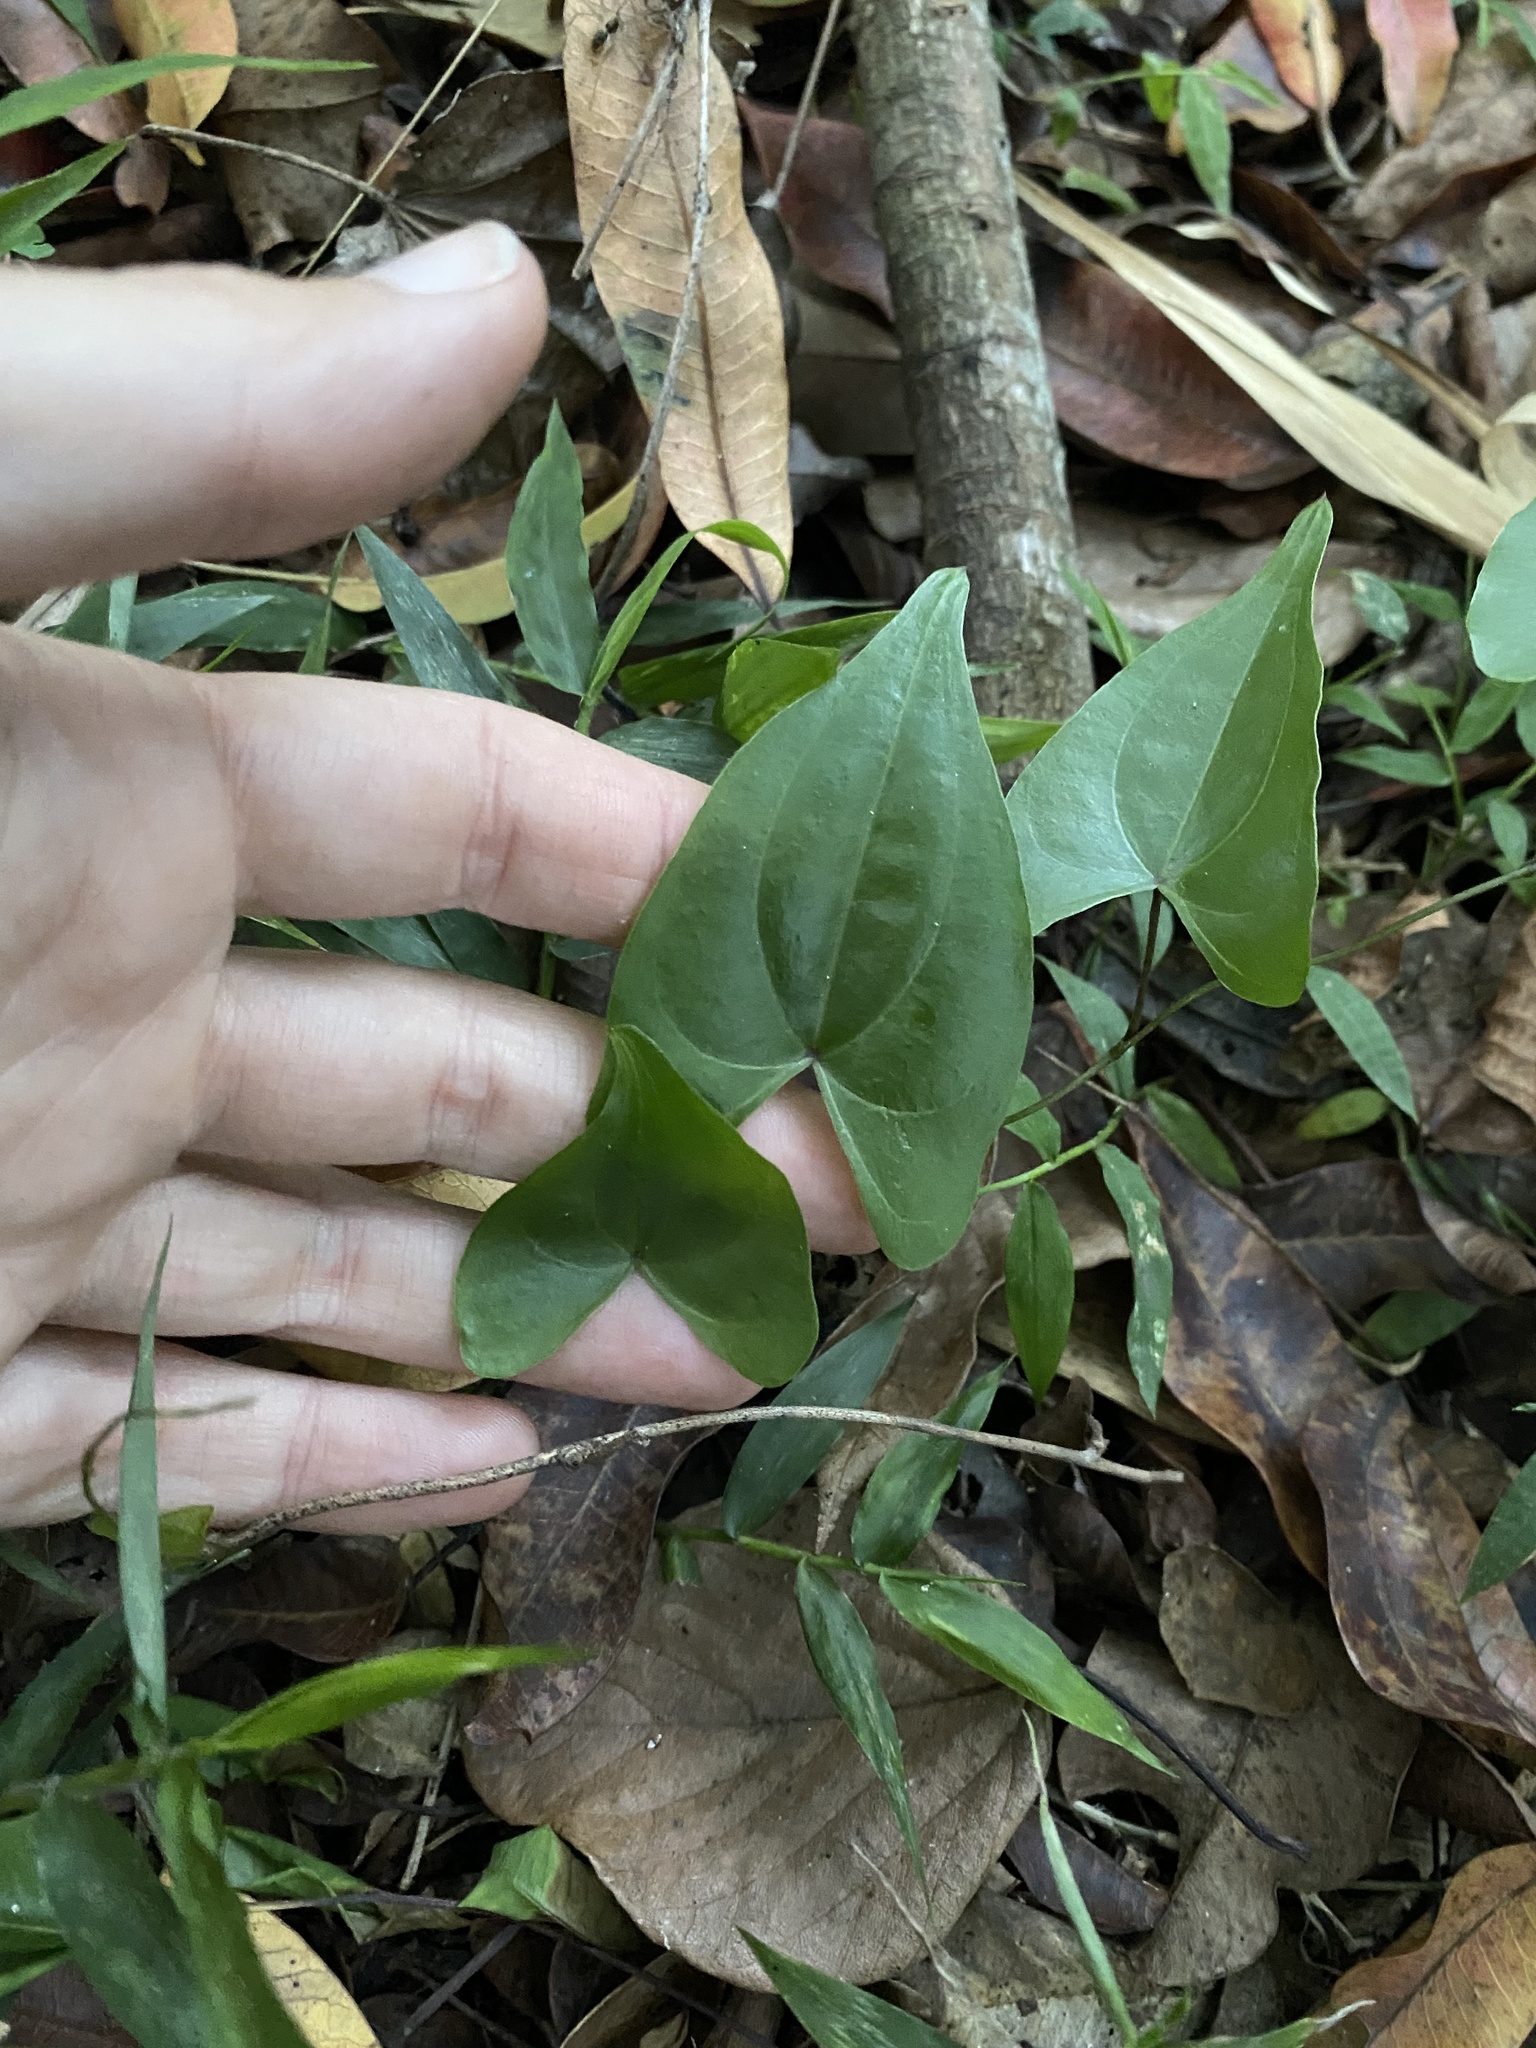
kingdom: Plantae
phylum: Tracheophyta
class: Liliopsida
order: Dioscoreales
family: Dioscoreaceae
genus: Dioscorea
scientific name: Dioscorea cotinifolia
